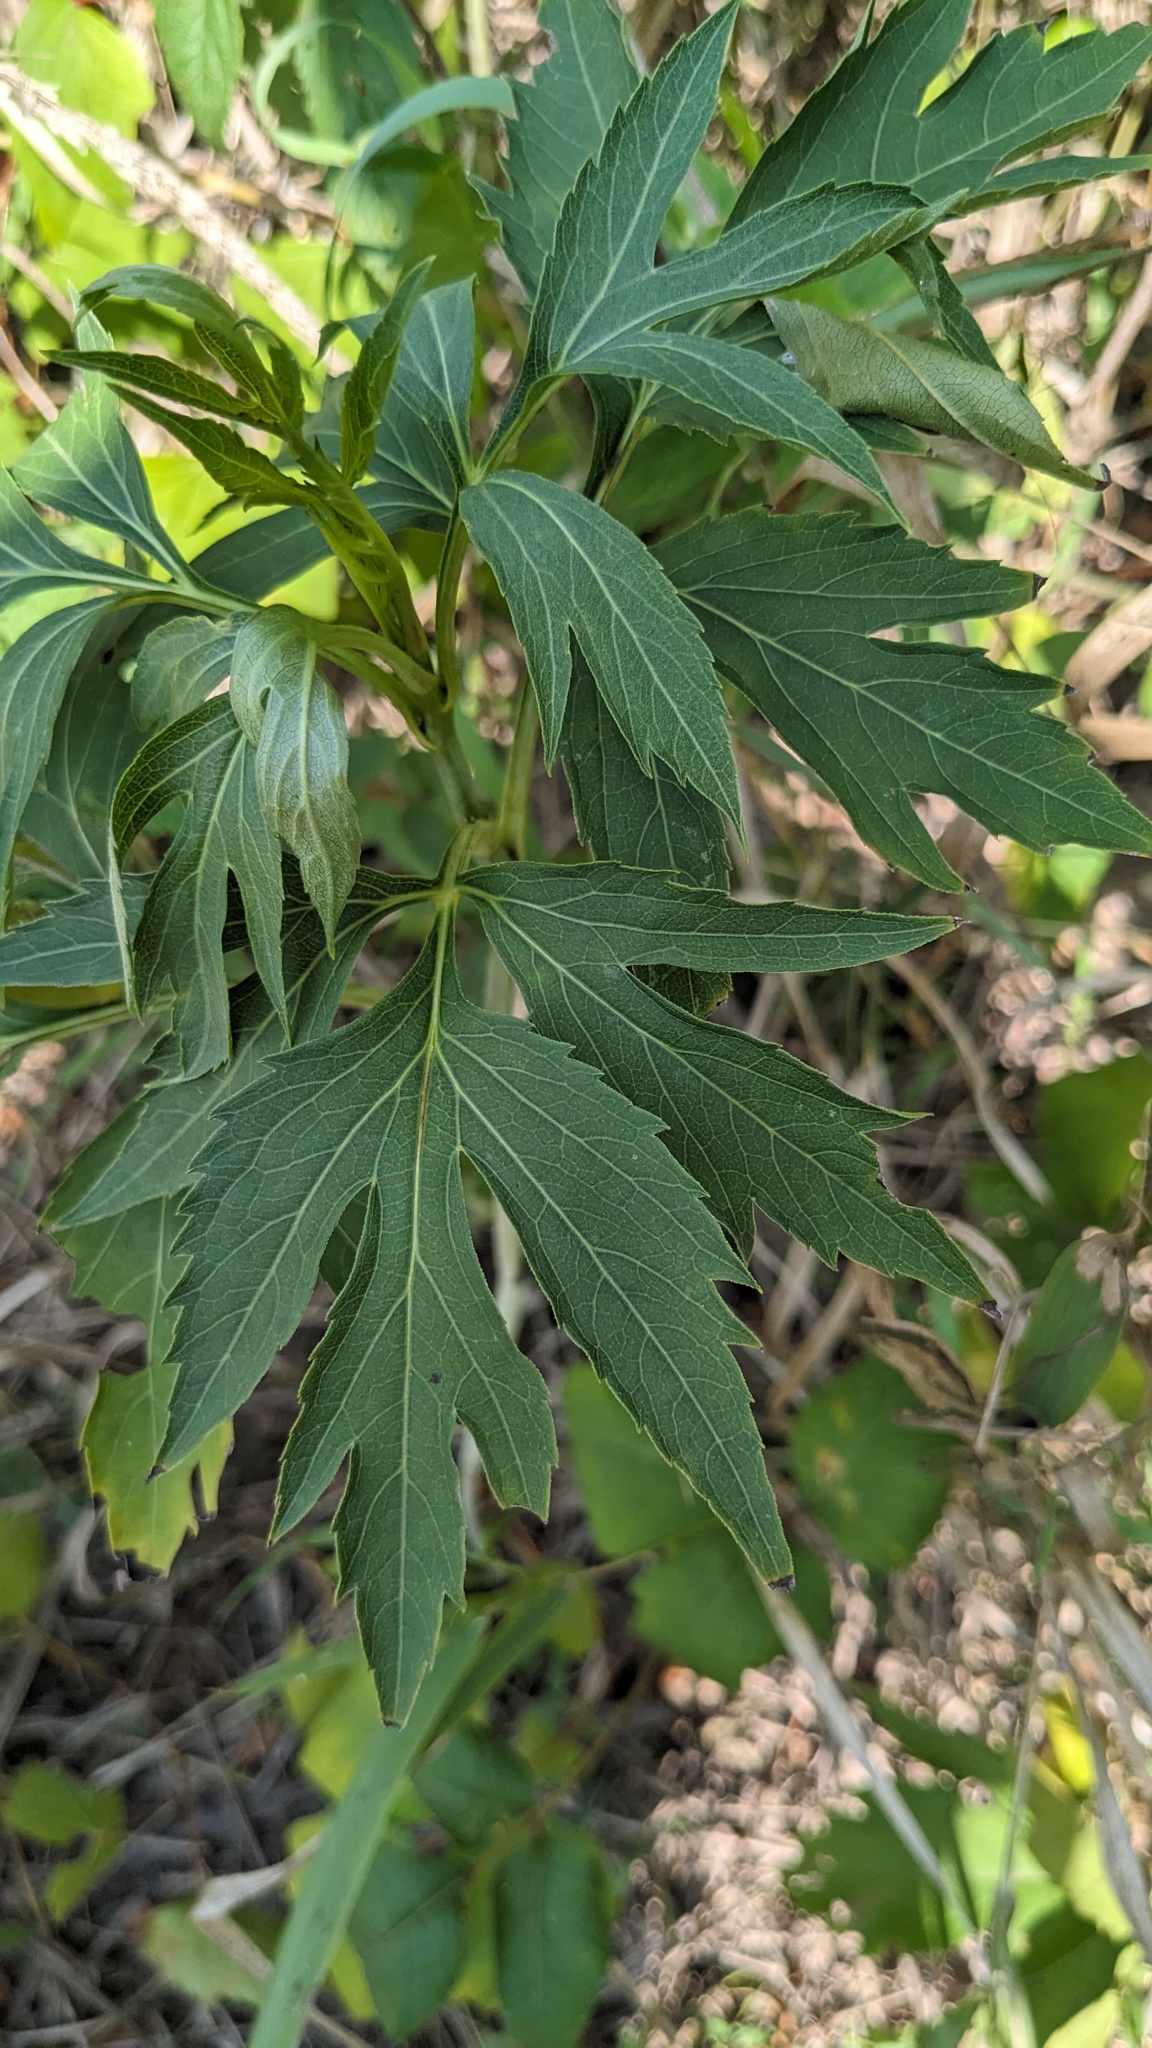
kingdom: Plantae
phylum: Tracheophyta
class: Magnoliopsida
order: Asterales
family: Asteraceae
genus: Rudbeckia
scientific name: Rudbeckia laciniata
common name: Coneflower
